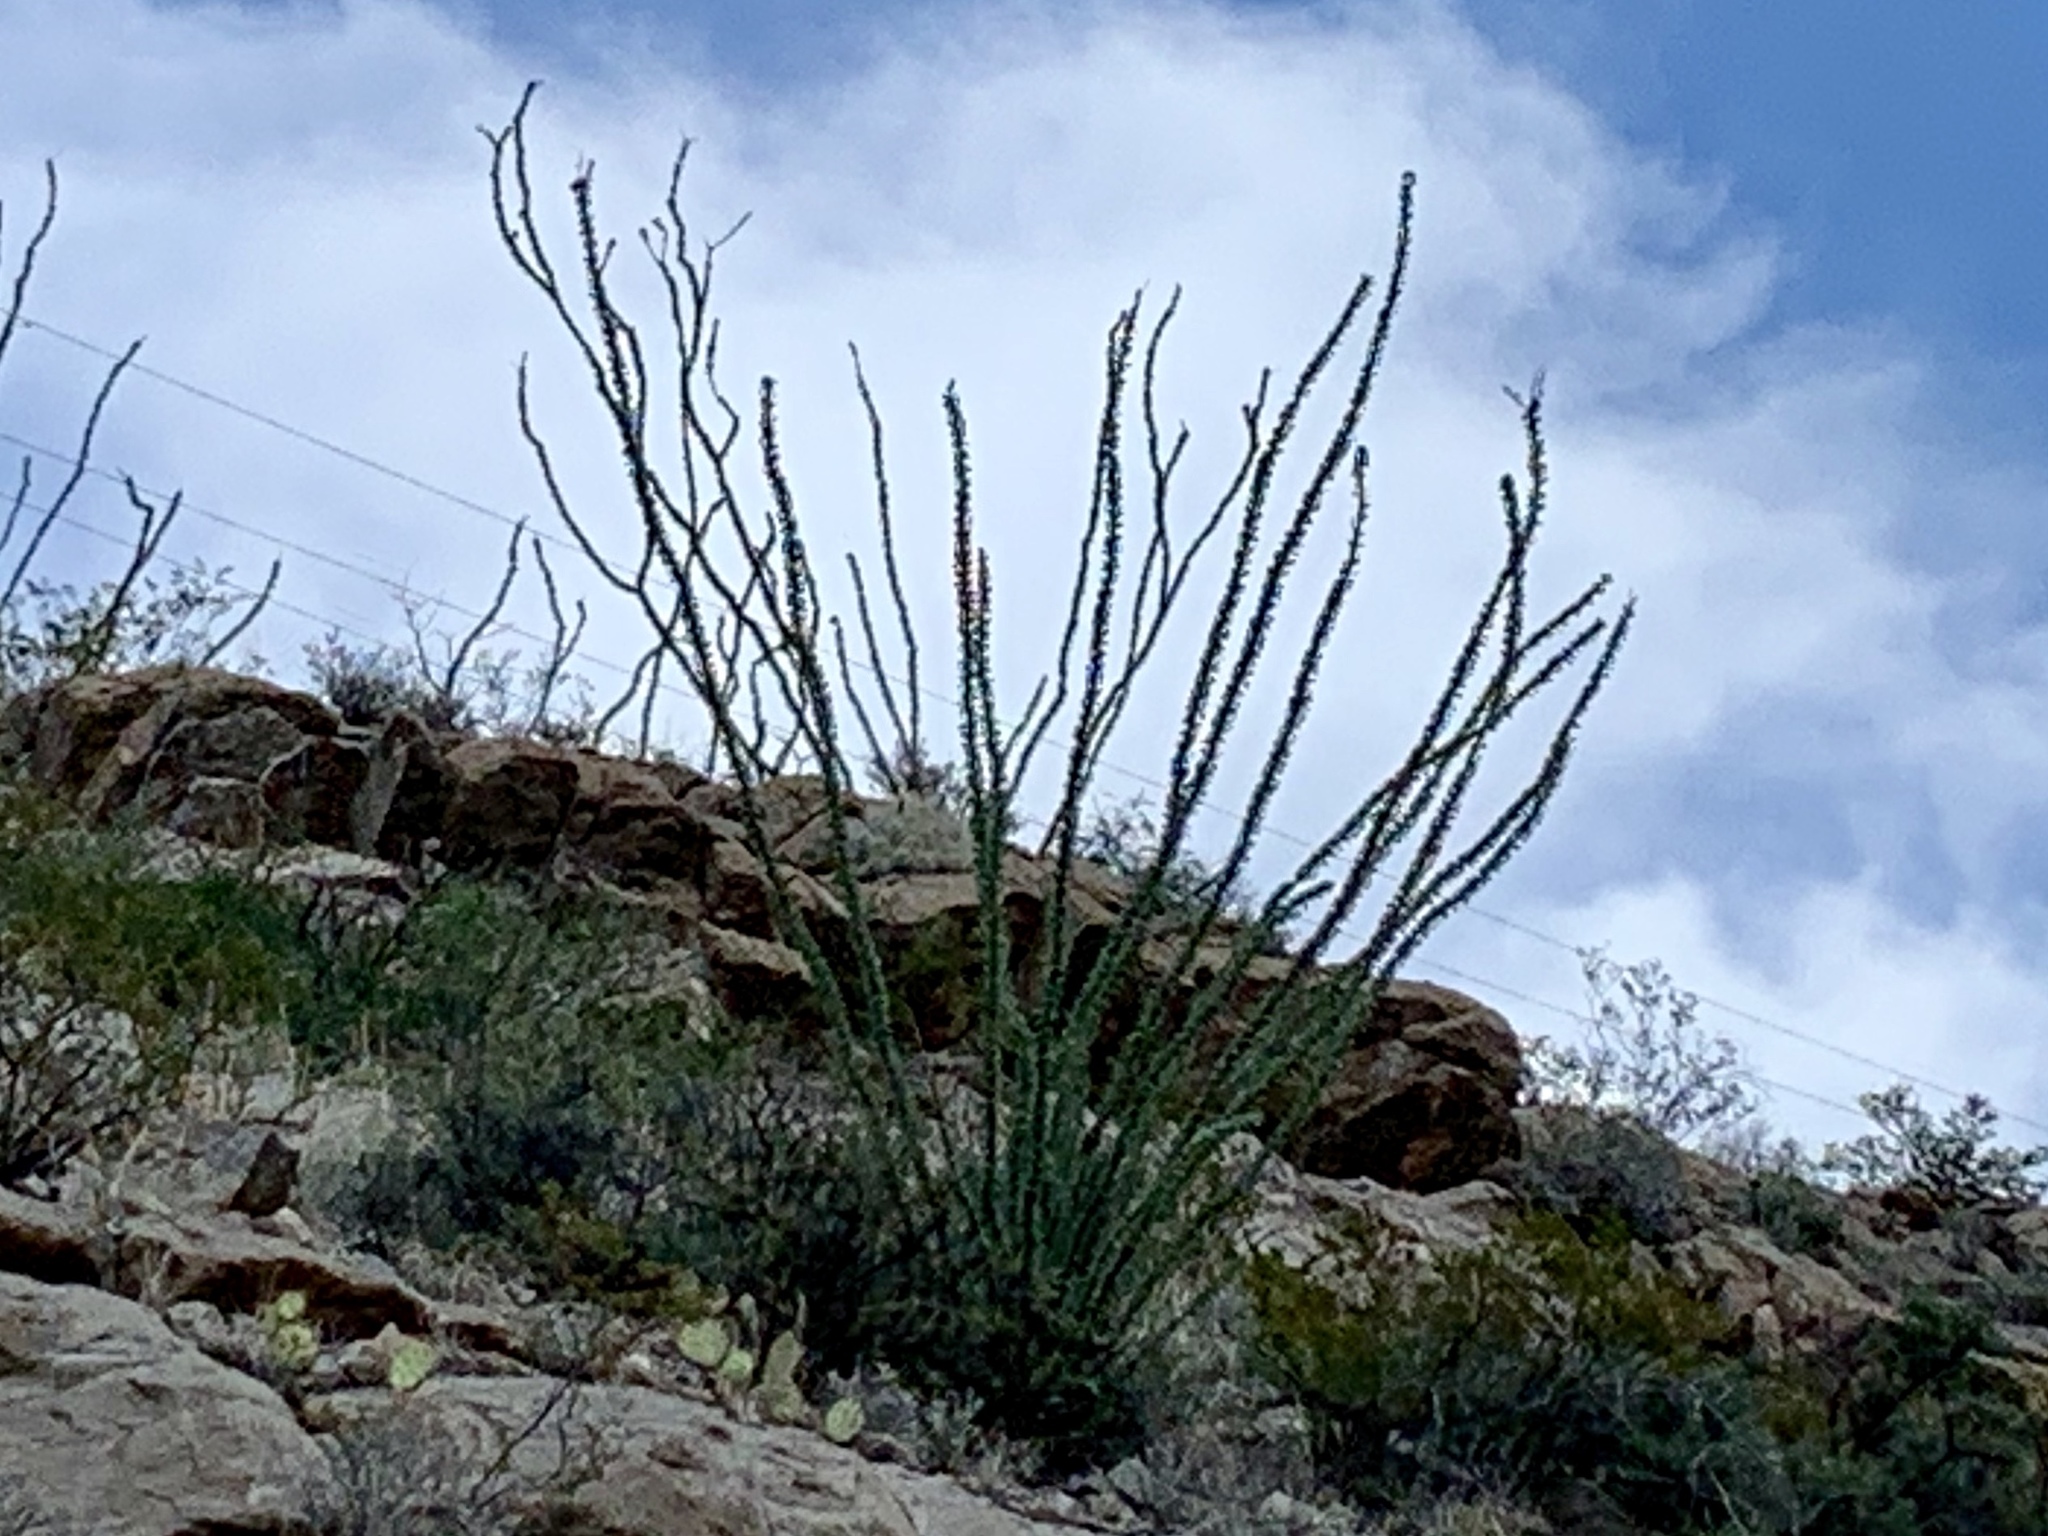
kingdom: Plantae
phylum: Tracheophyta
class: Magnoliopsida
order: Ericales
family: Fouquieriaceae
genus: Fouquieria
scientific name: Fouquieria splendens
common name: Vine-cactus
